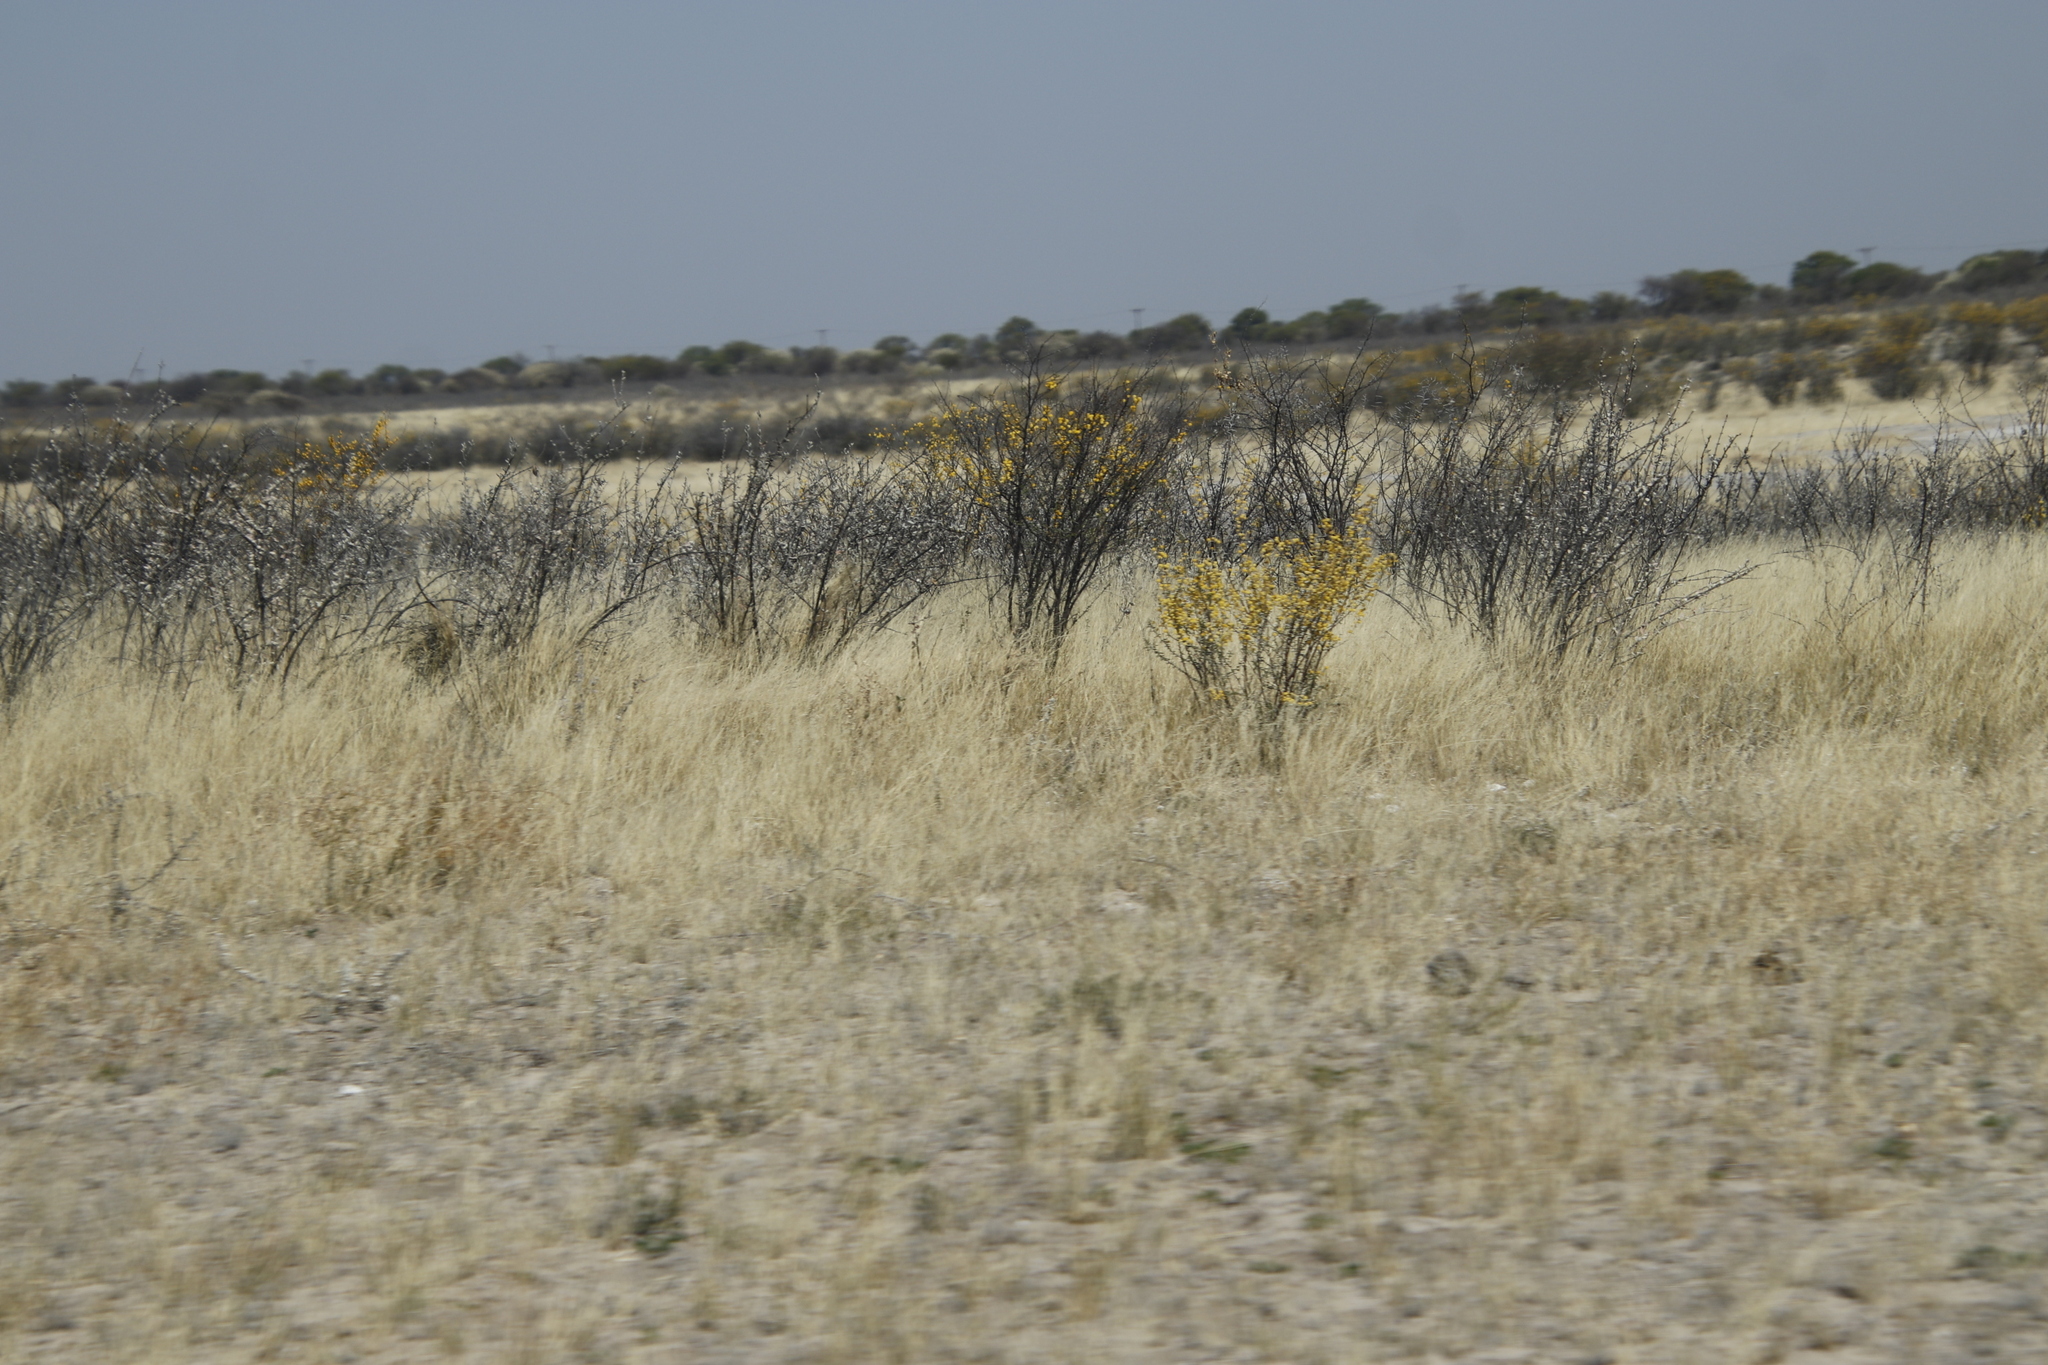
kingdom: Plantae
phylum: Tracheophyta
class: Magnoliopsida
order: Lamiales
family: Bignoniaceae
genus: Rhigozum
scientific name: Rhigozum brevispinosum
